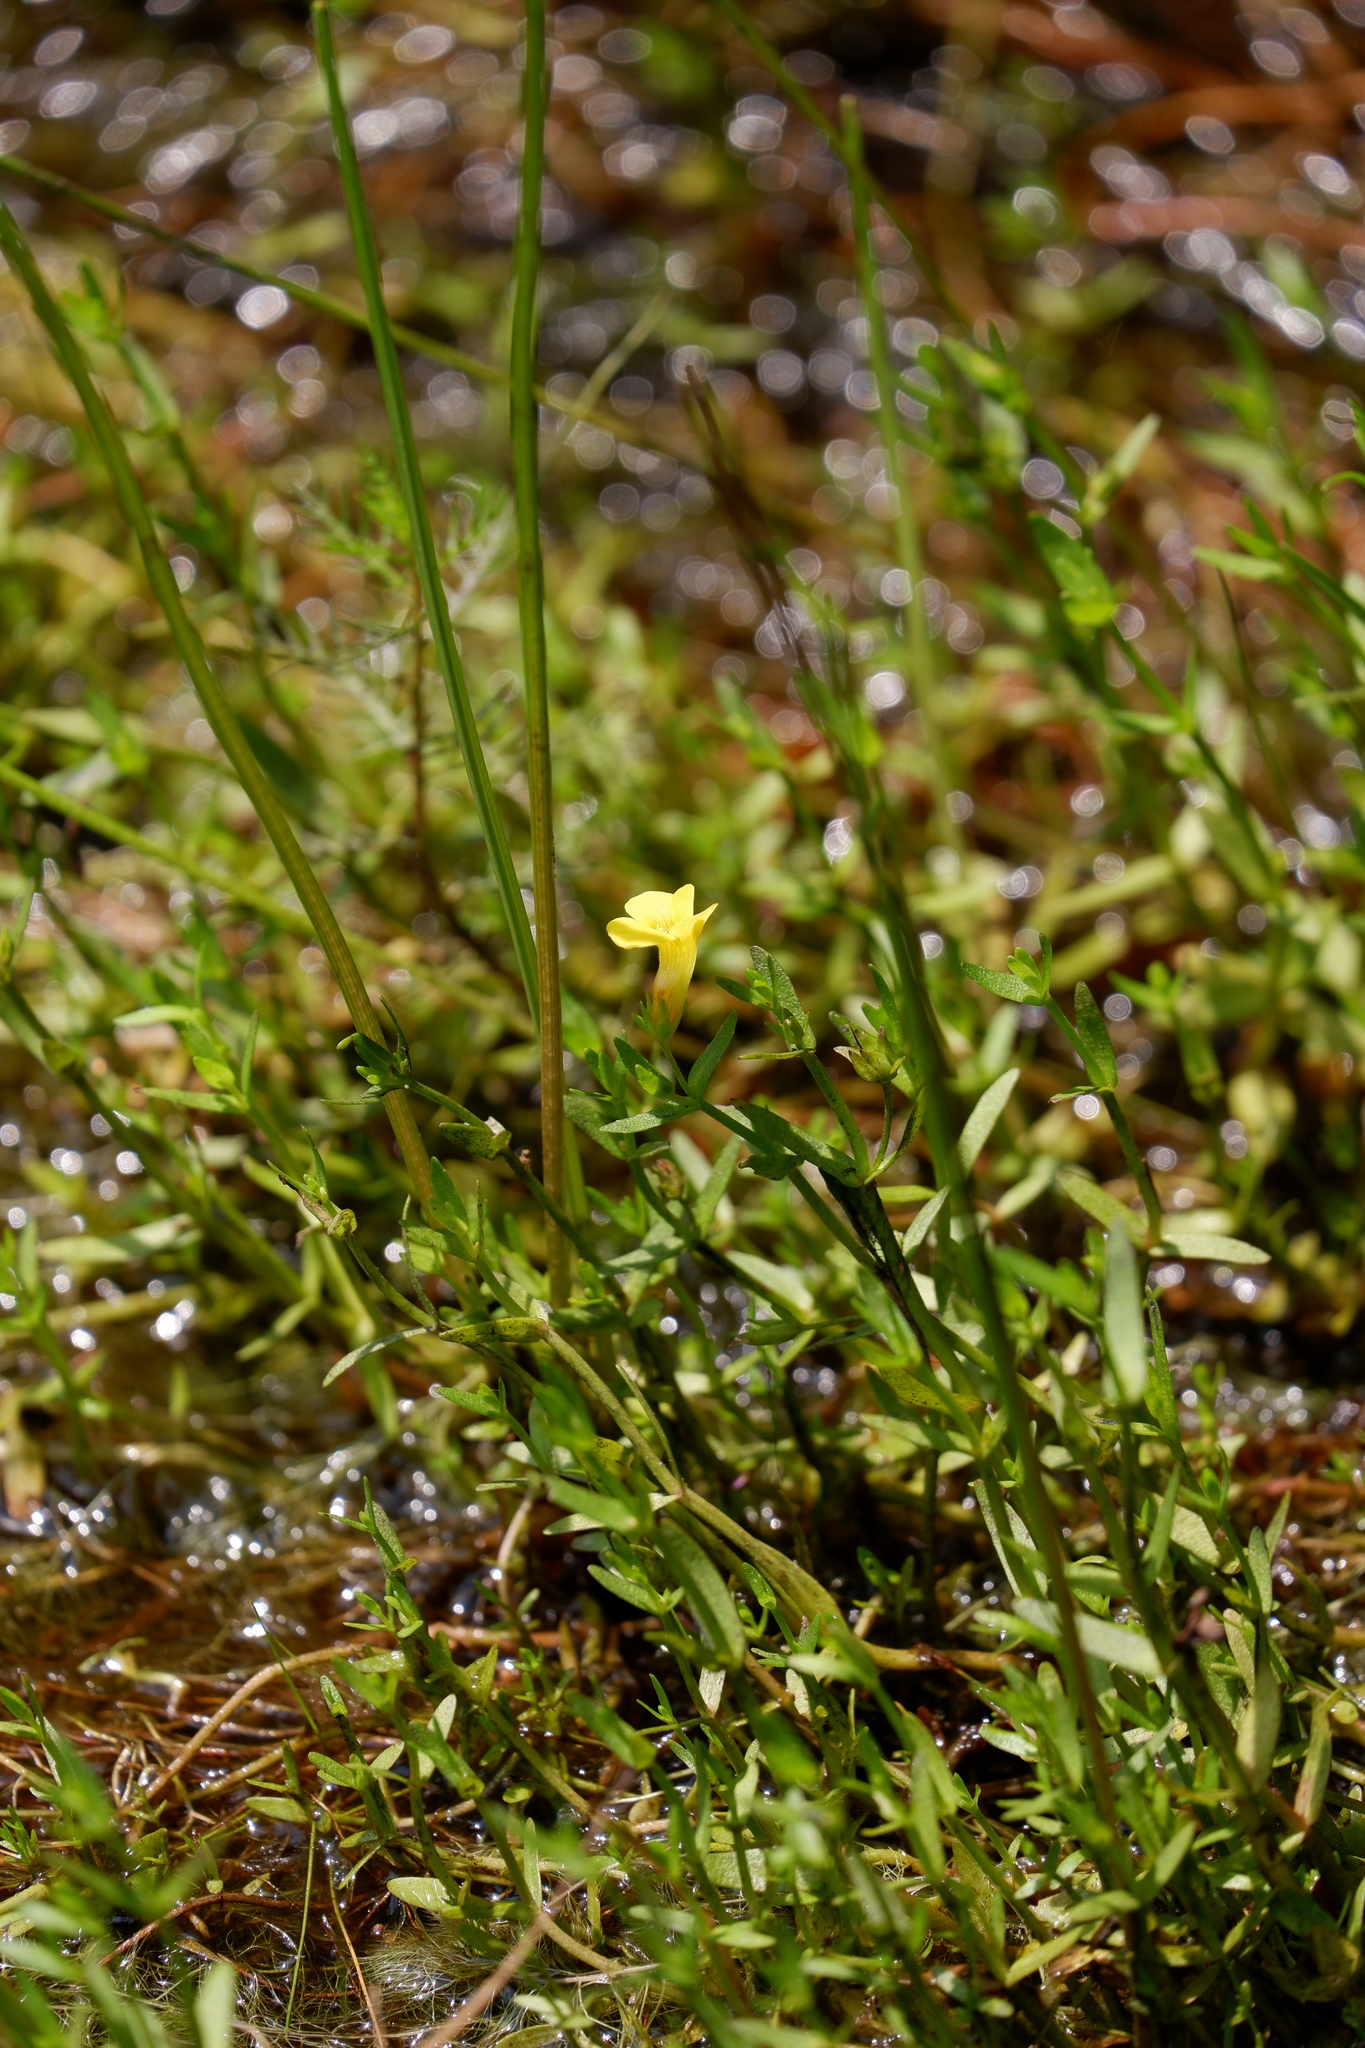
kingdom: Plantae
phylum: Tracheophyta
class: Magnoliopsida
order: Lamiales
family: Plantaginaceae
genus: Gratiola
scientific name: Gratiola lutea
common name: Golden hedge-hyssop
